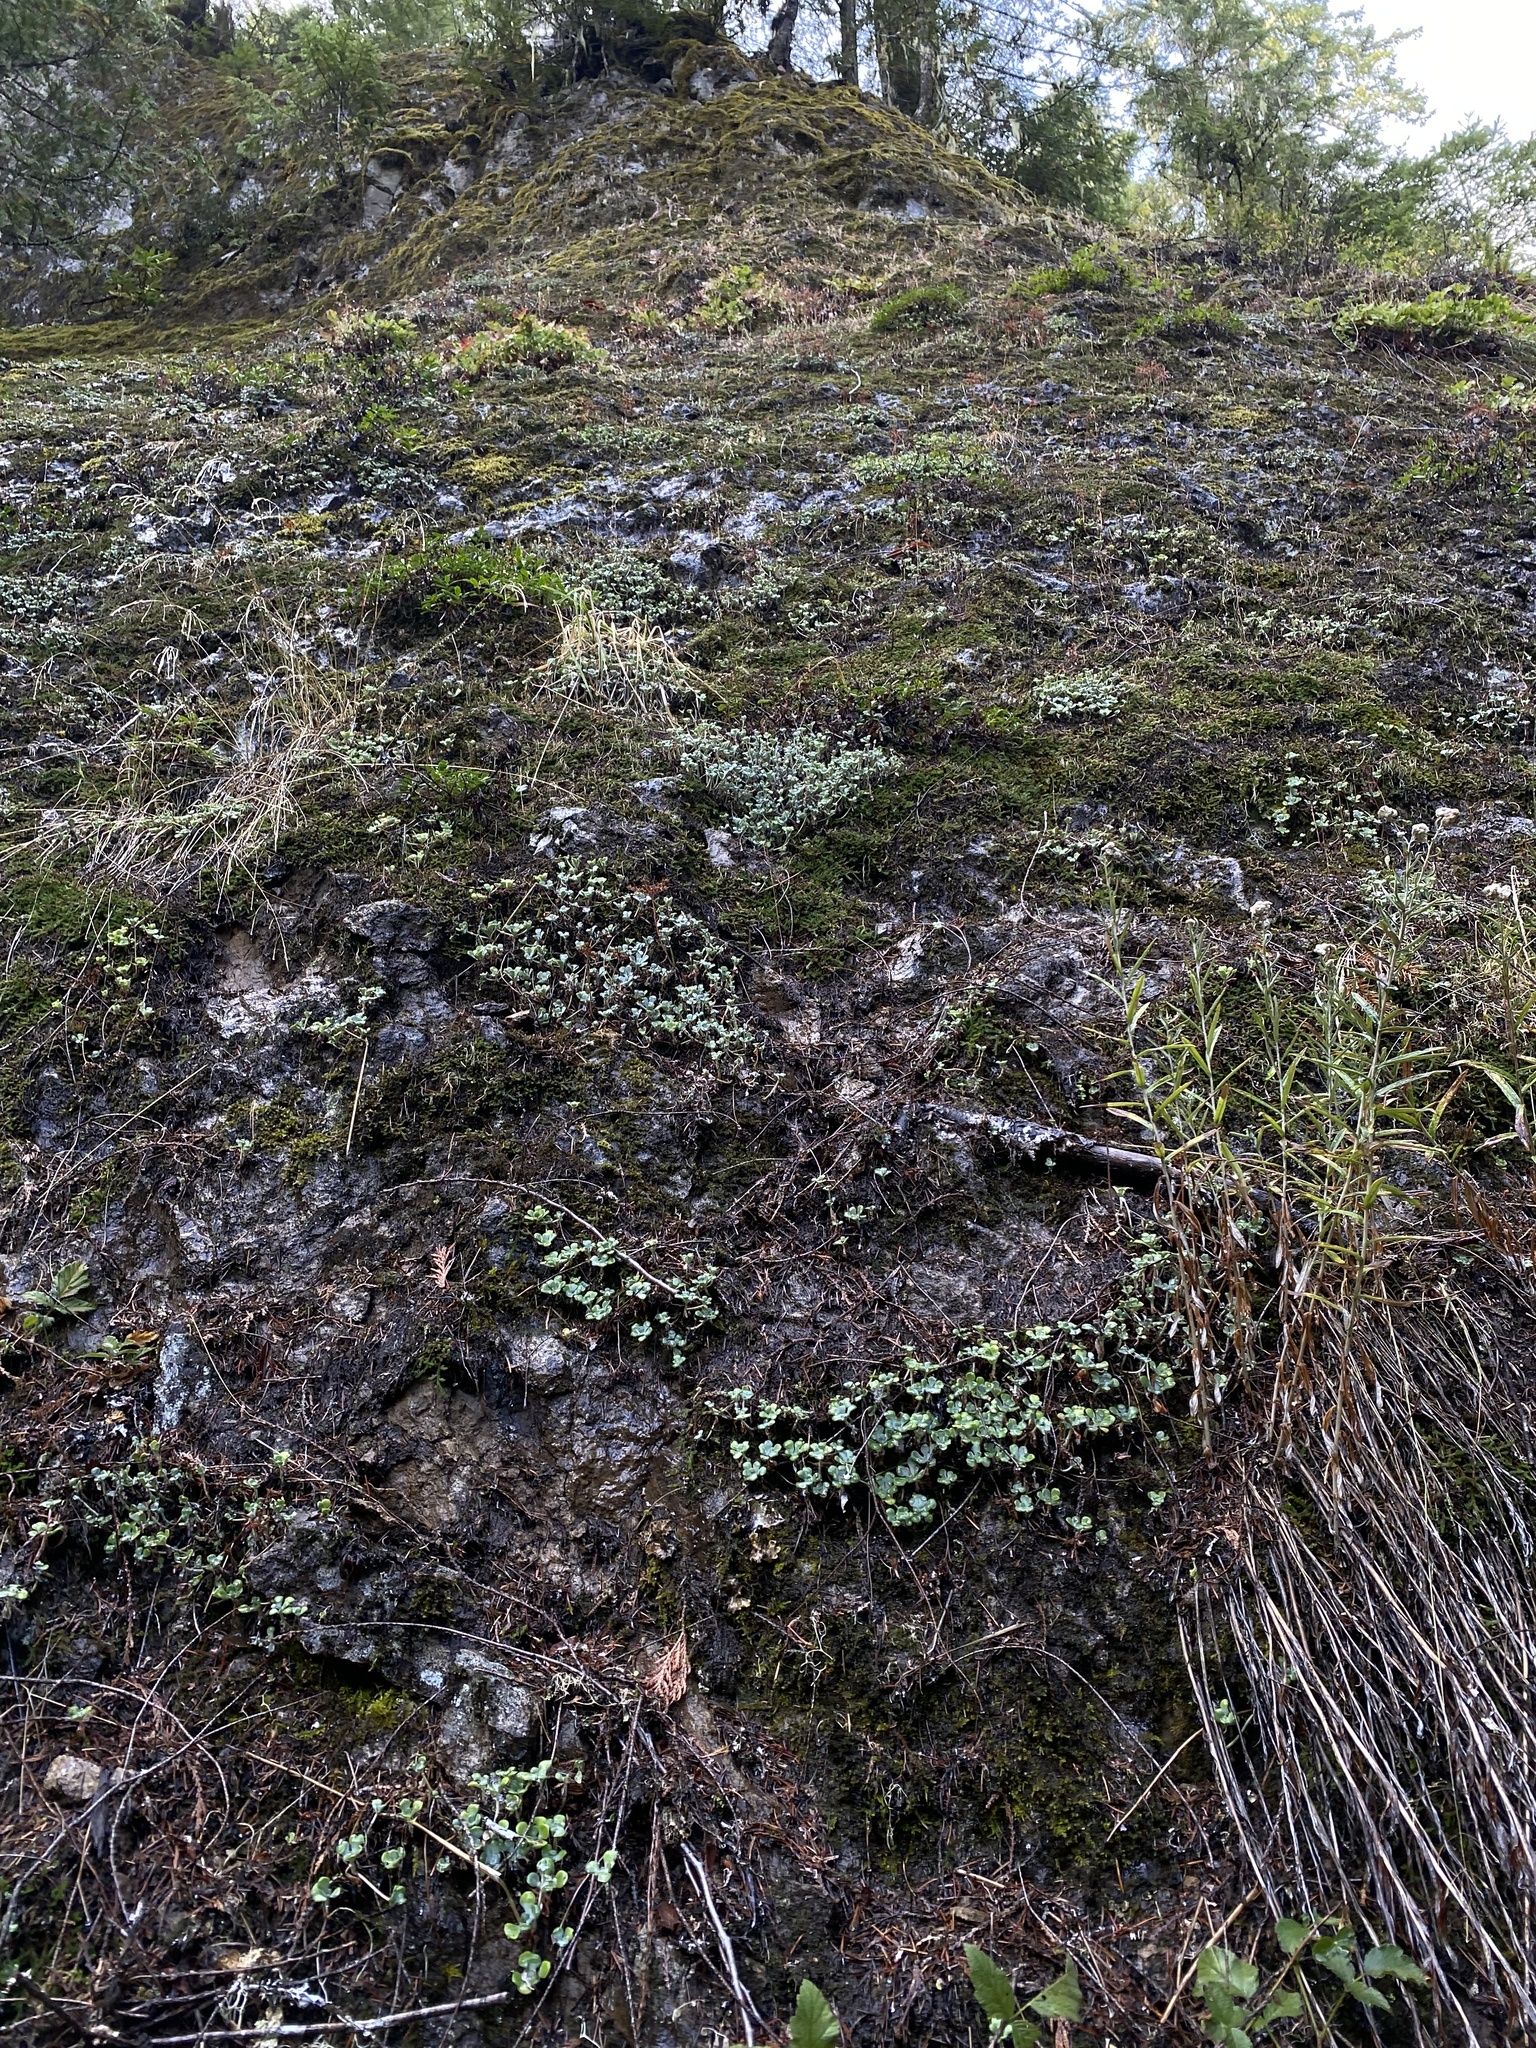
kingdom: Plantae
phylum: Tracheophyta
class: Magnoliopsida
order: Saxifragales
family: Crassulaceae
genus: Sedum
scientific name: Sedum spathulifolium
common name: Colorado stonecrop
